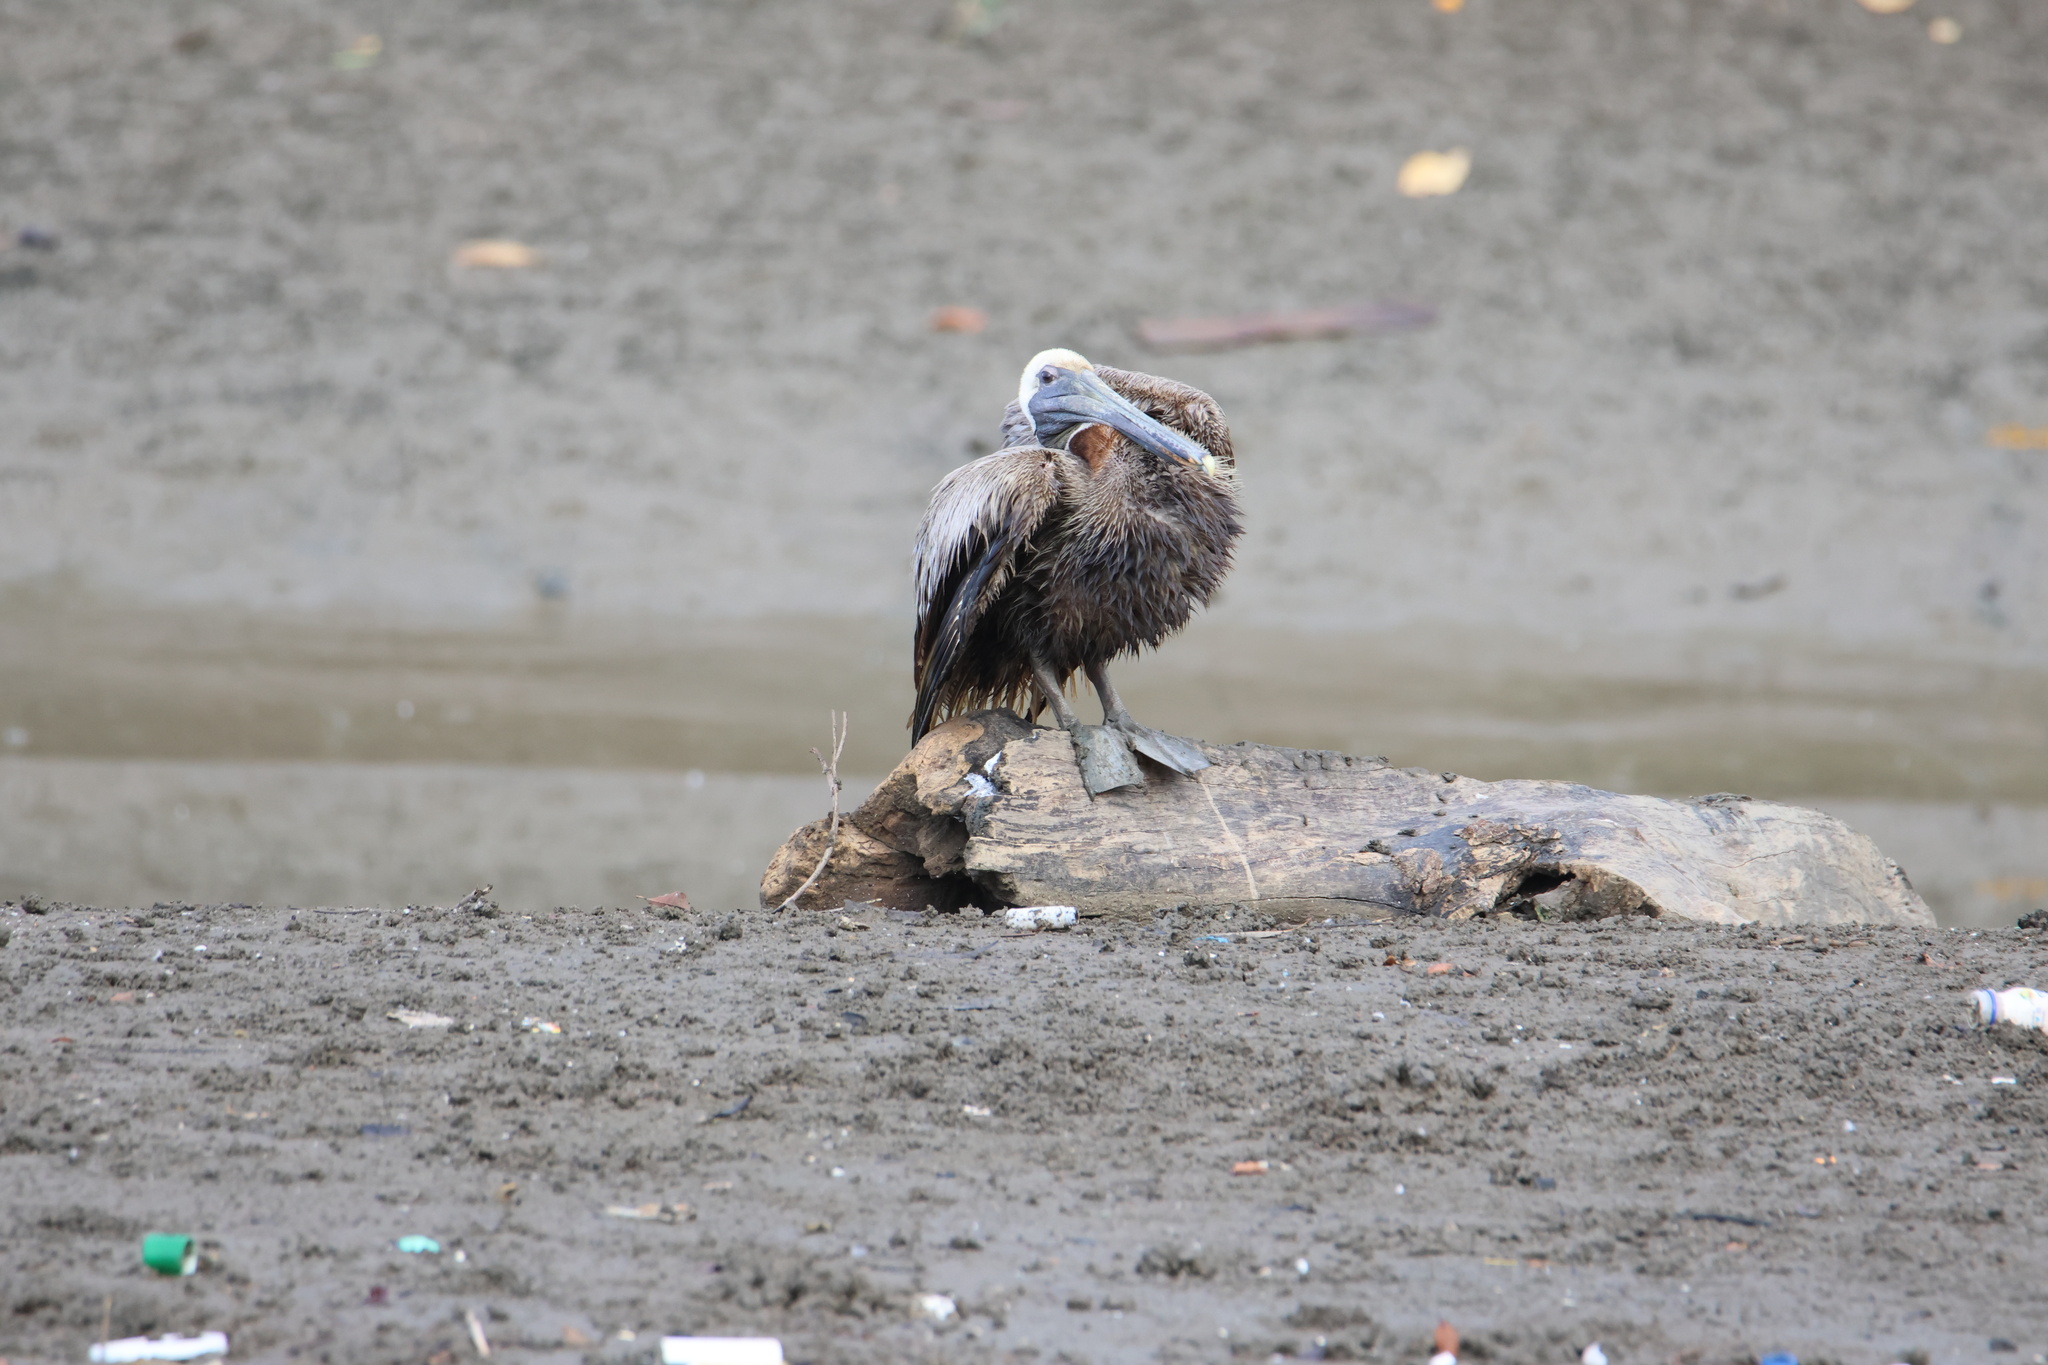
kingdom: Animalia
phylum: Chordata
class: Aves
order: Pelecaniformes
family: Pelecanidae
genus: Pelecanus
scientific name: Pelecanus occidentalis
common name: Brown pelican
